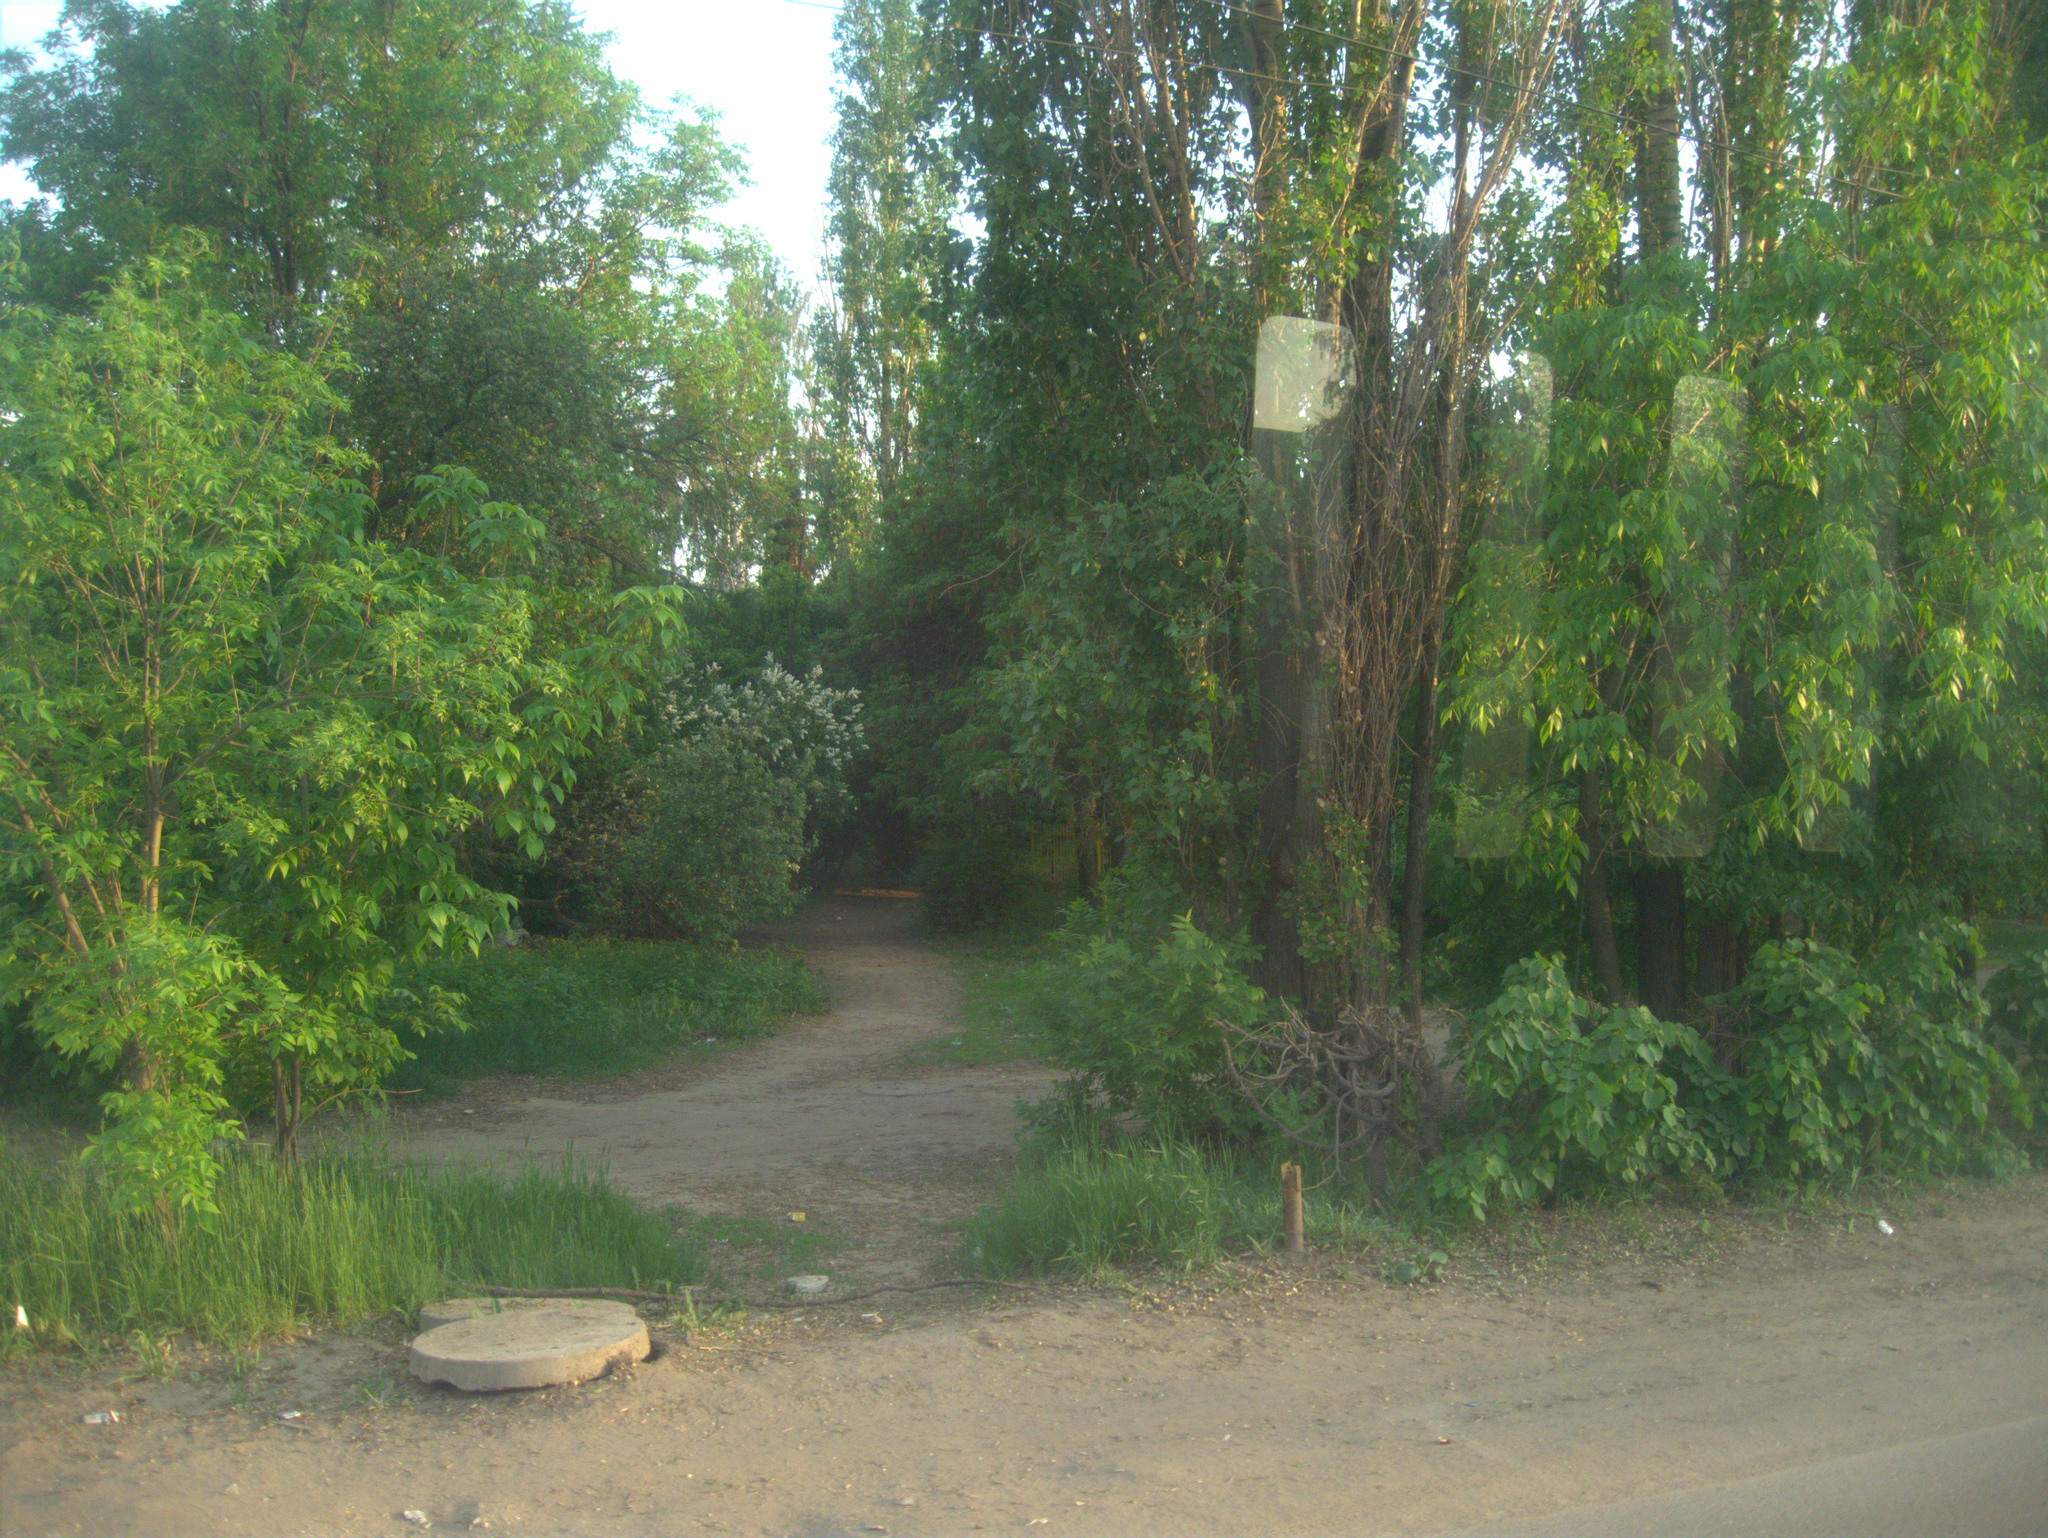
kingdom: Plantae
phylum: Tracheophyta
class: Magnoliopsida
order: Sapindales
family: Sapindaceae
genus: Acer
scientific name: Acer negundo
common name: Ashleaf maple
